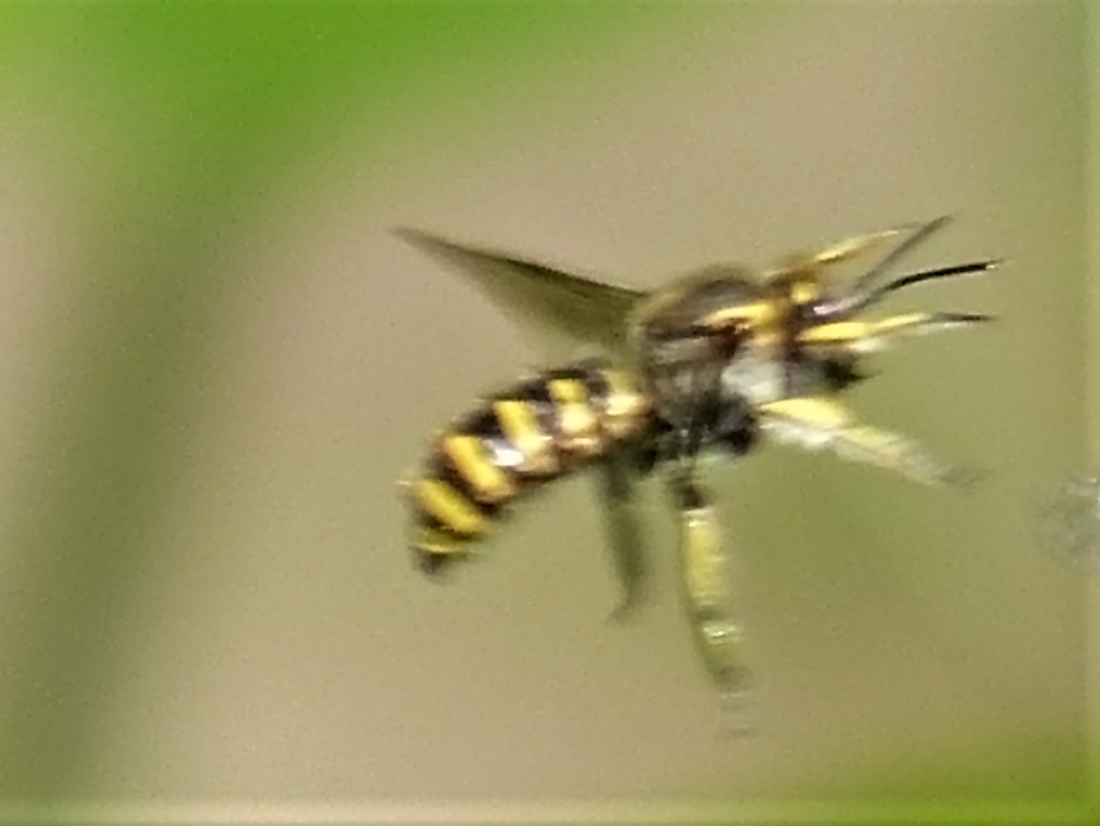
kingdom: Animalia
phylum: Arthropoda
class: Insecta
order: Hymenoptera
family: Megachilidae
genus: Anthidium
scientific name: Anthidium manicatum
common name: Wool carder bee
